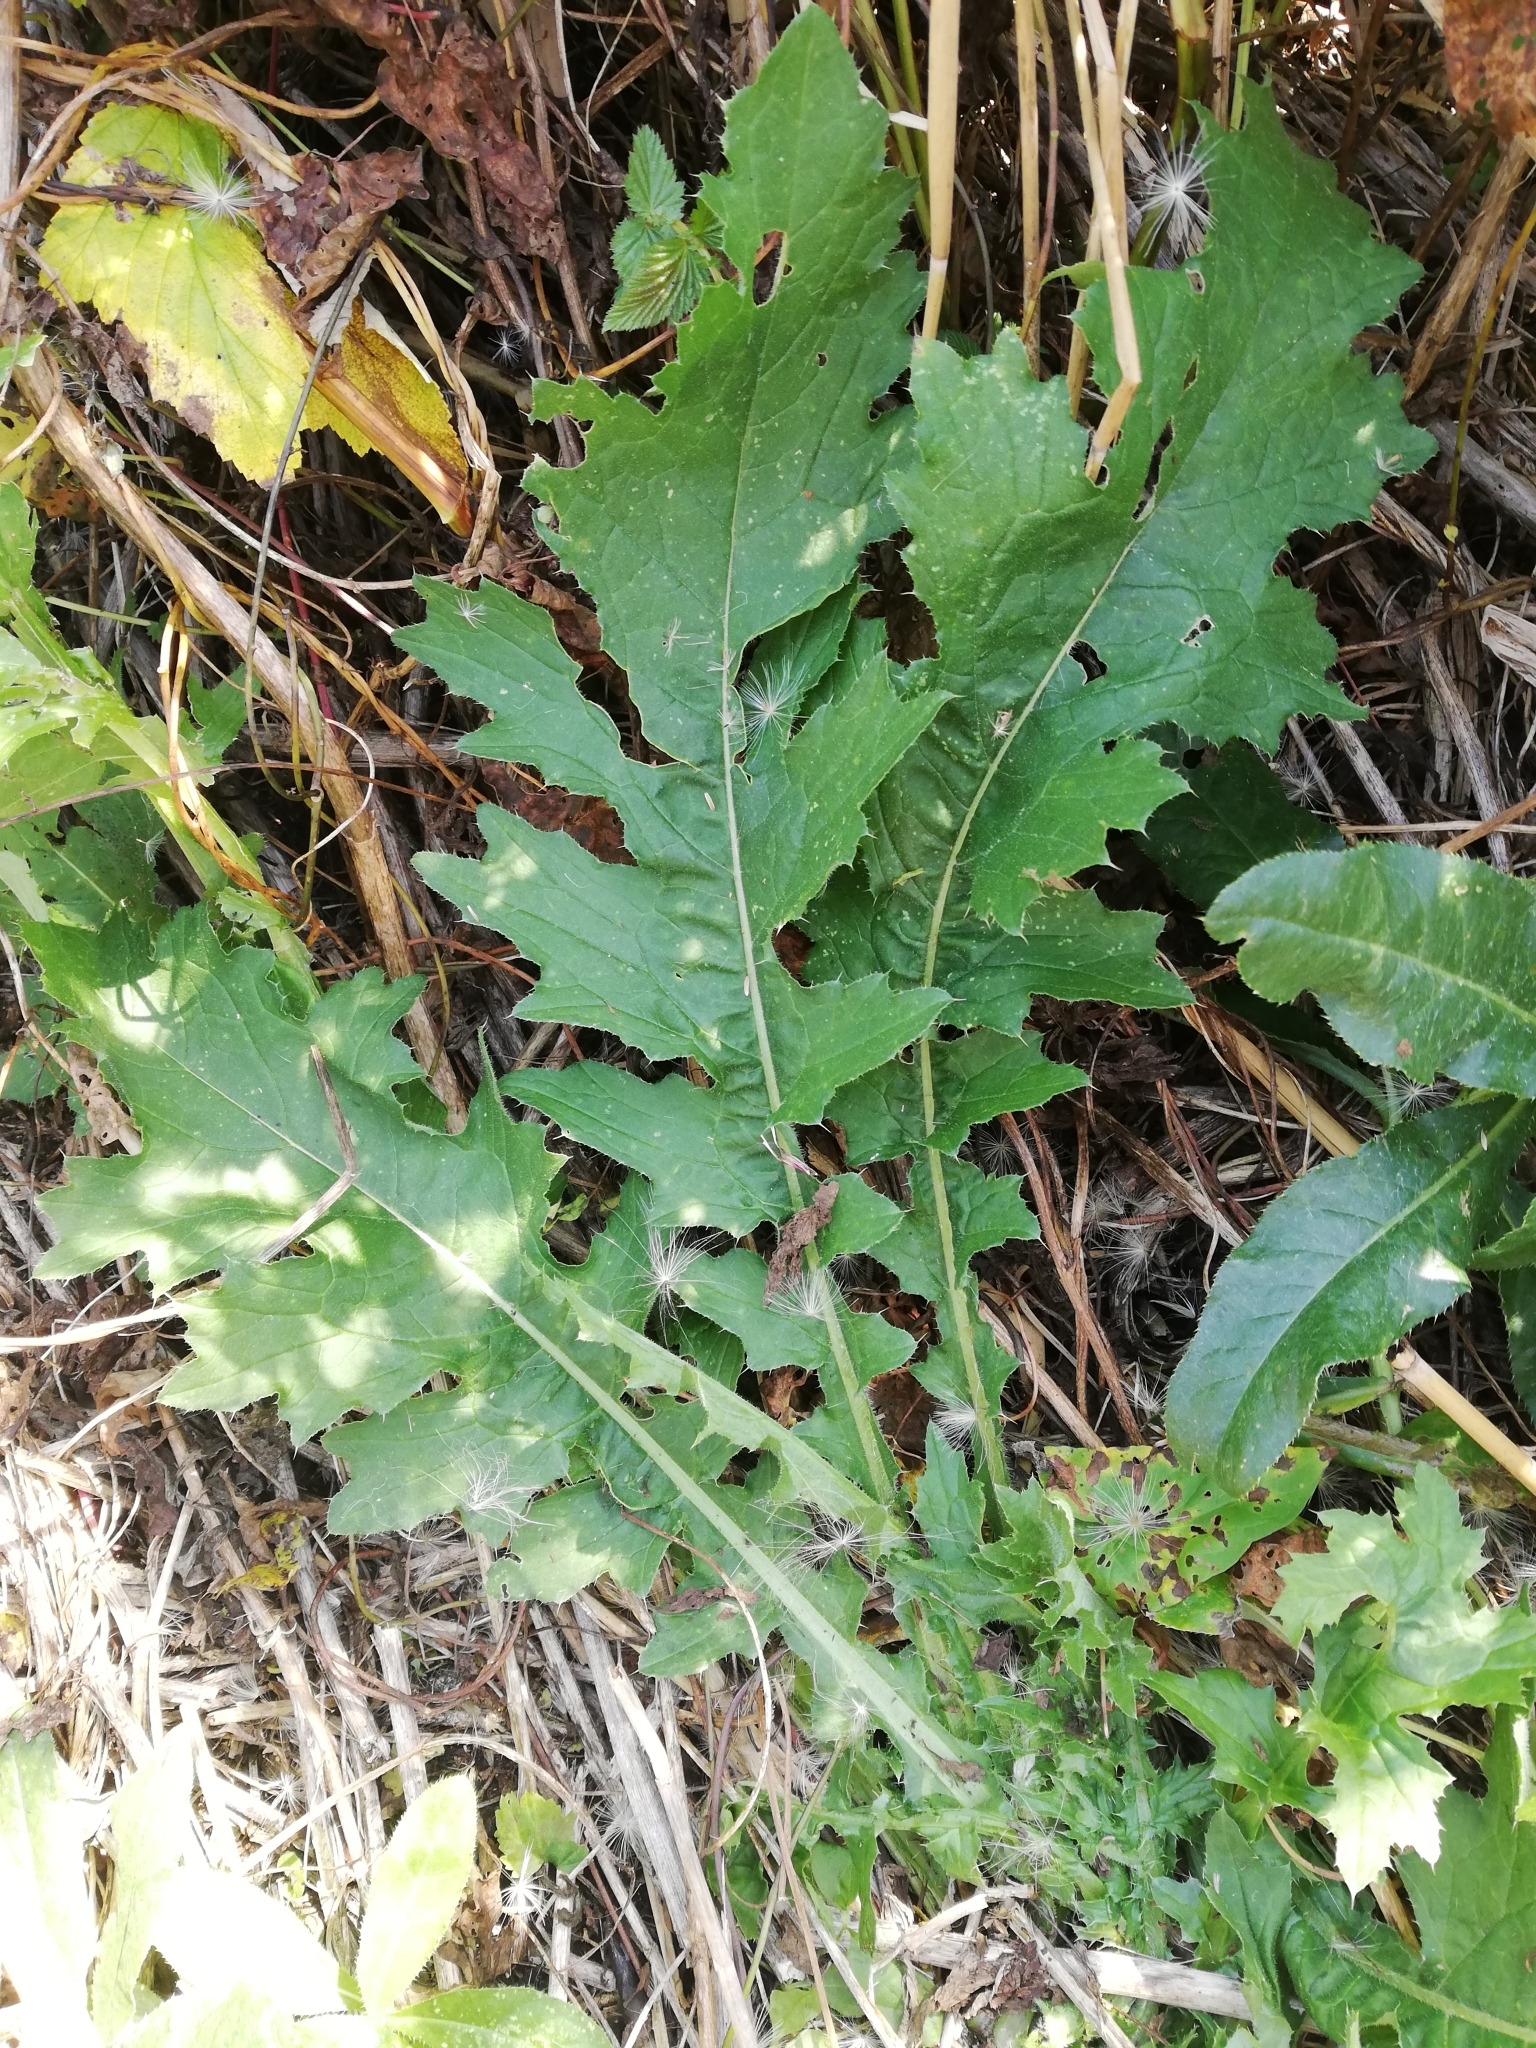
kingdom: Plantae
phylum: Tracheophyta
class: Magnoliopsida
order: Asterales
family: Asteraceae
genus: Carduus
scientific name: Carduus crispus
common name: Welted thistle
